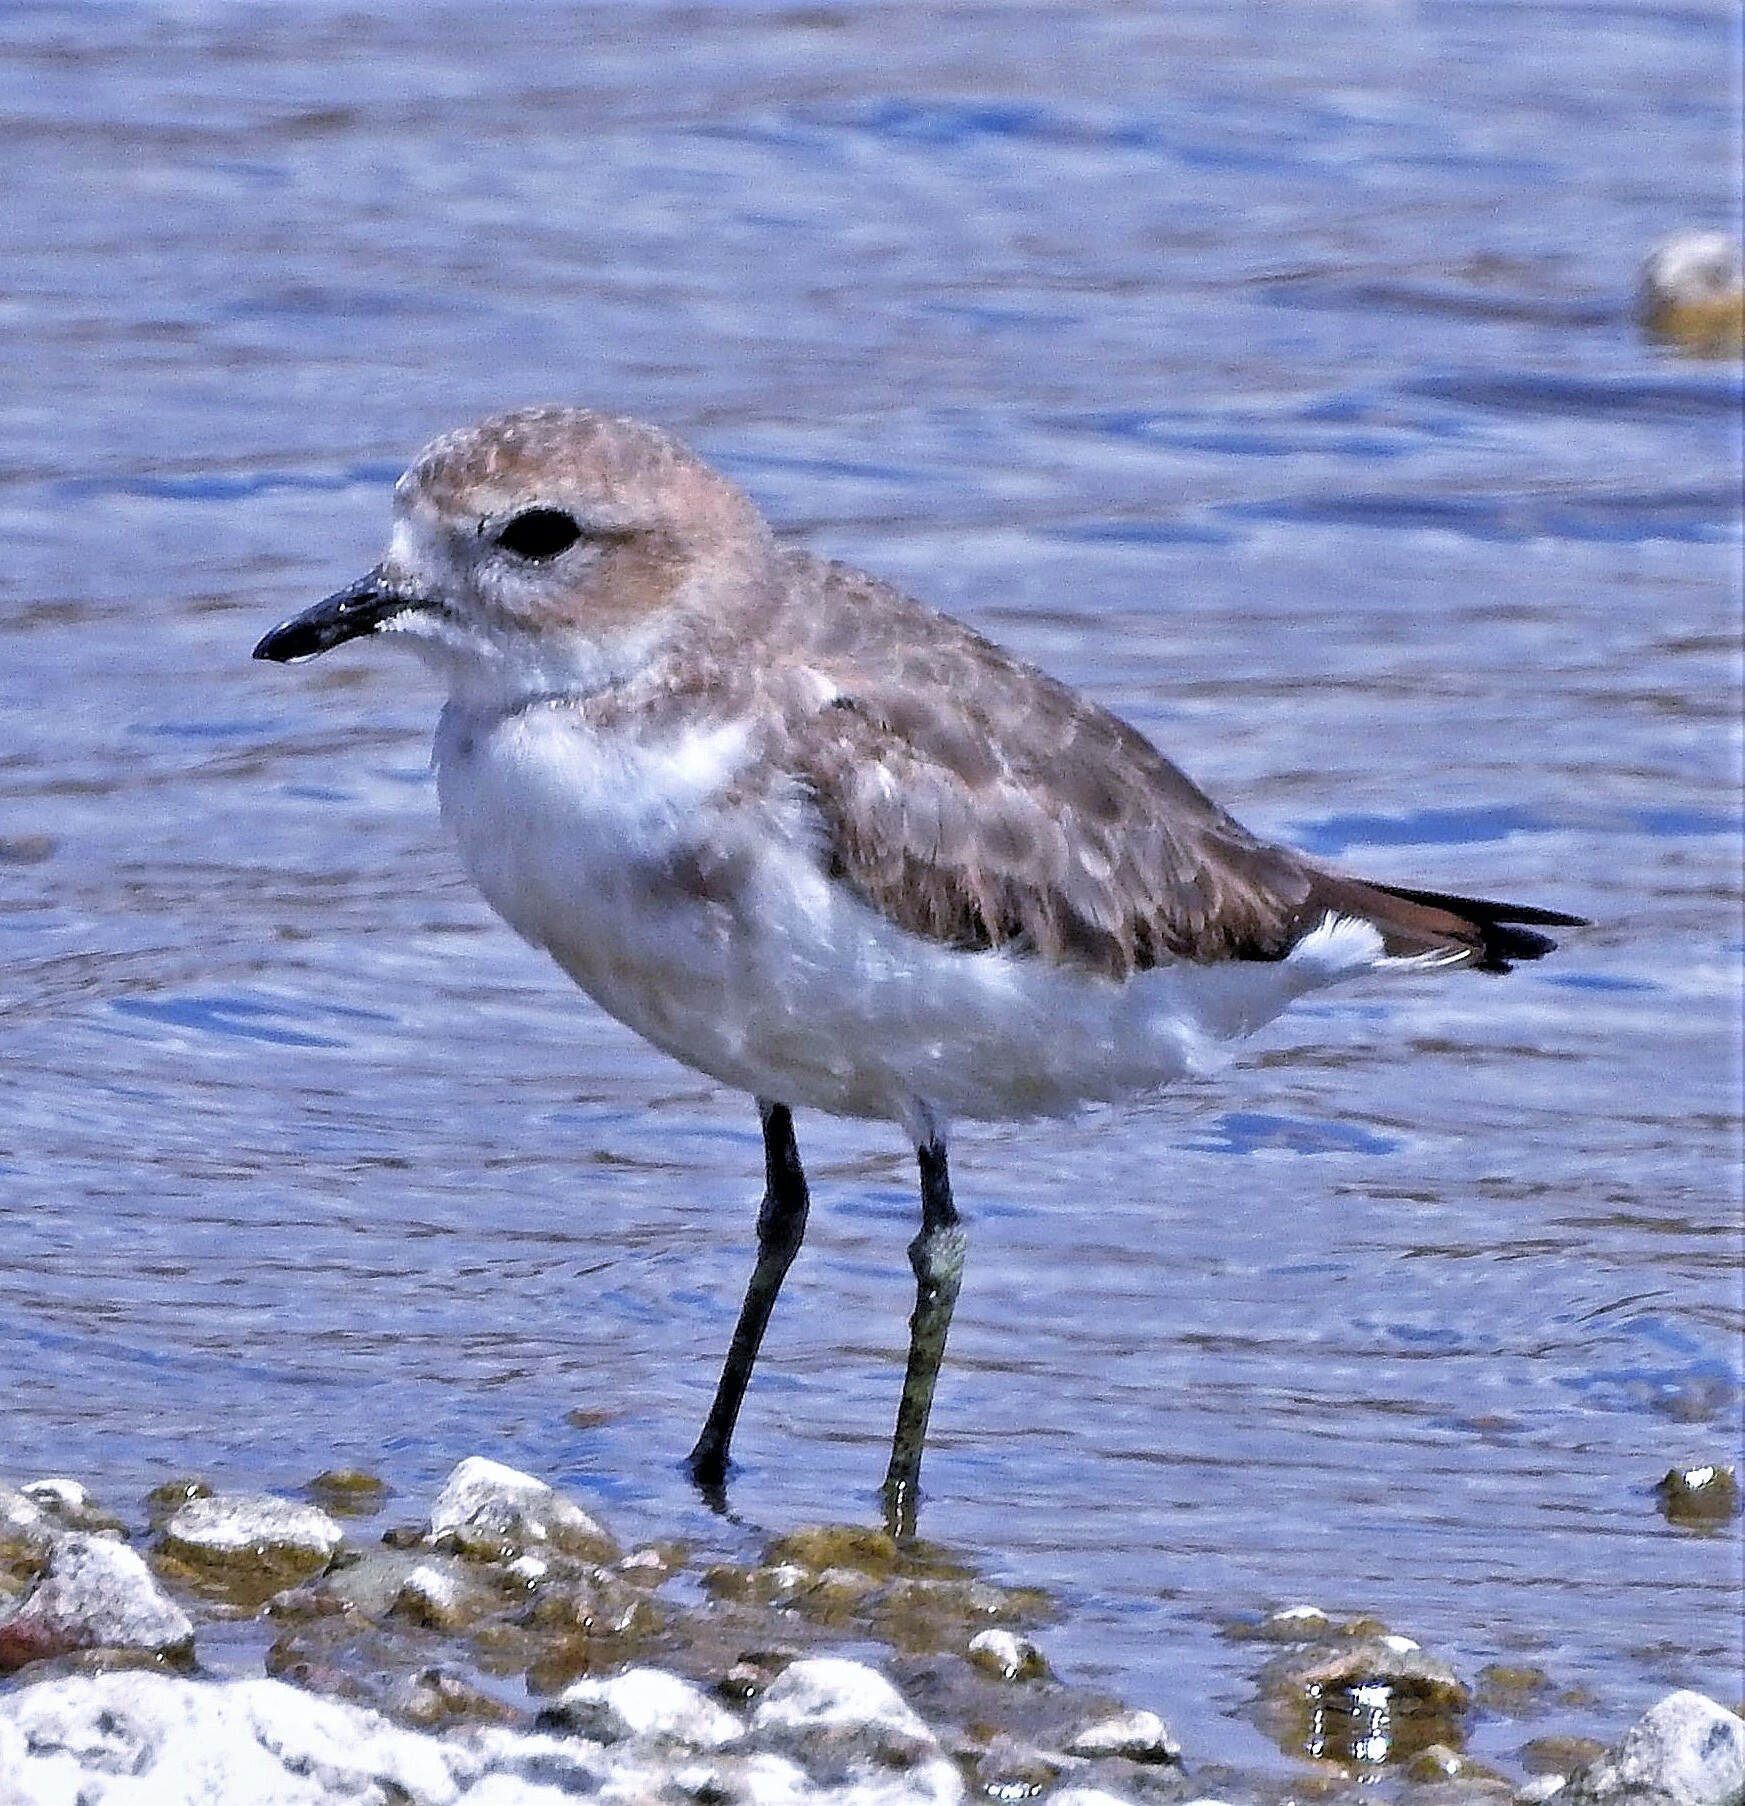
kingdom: Animalia
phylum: Chordata
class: Aves
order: Charadriiformes
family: Charadriidae
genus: Anarhynchus
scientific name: Anarhynchus
